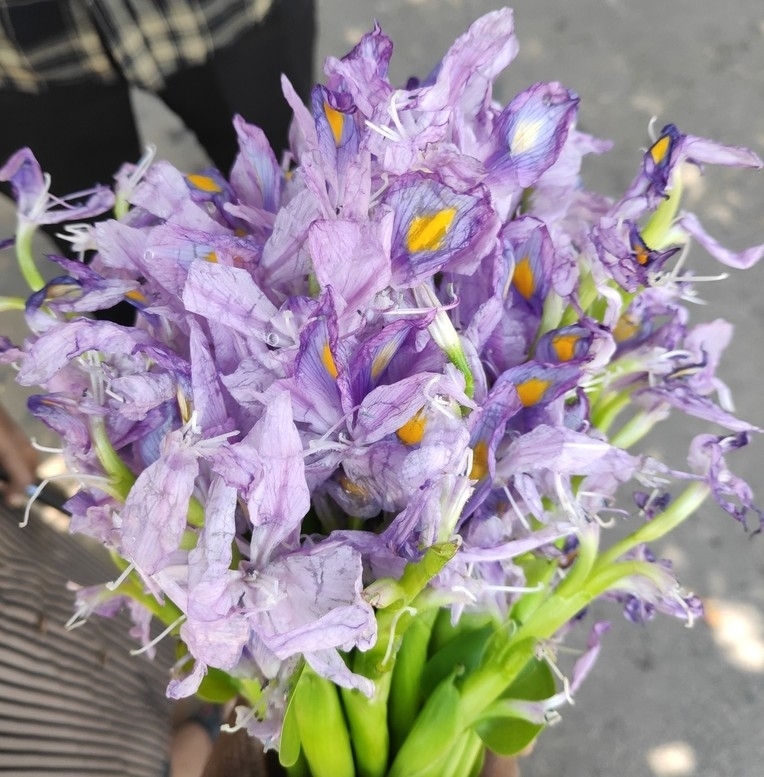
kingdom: Plantae
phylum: Tracheophyta
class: Liliopsida
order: Commelinales
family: Pontederiaceae
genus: Pontederia
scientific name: Pontederia crassipes
